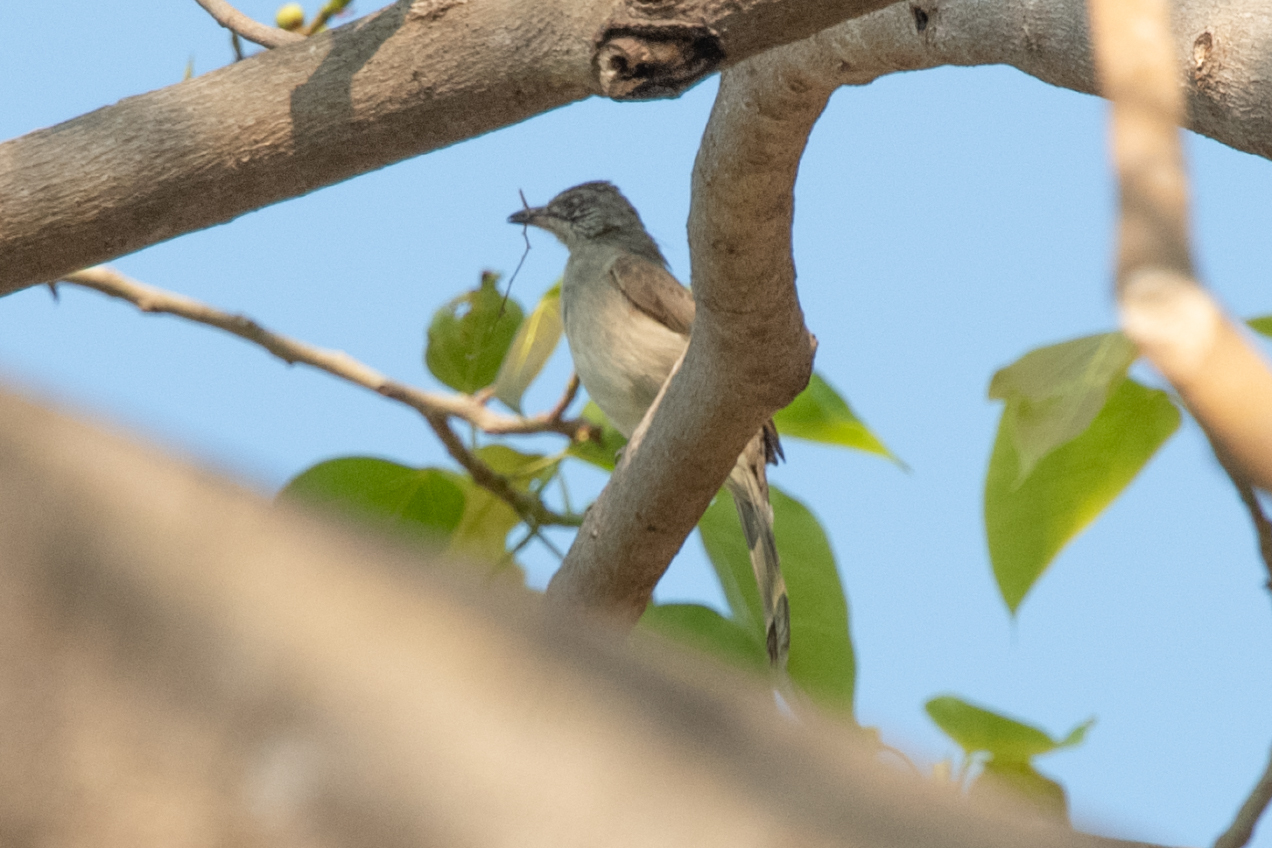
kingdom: Animalia
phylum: Chordata
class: Aves
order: Passeriformes
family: Pycnonotidae
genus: Pycnonotus
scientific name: Pycnonotus blanfordi
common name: Streak-eared bulbul
